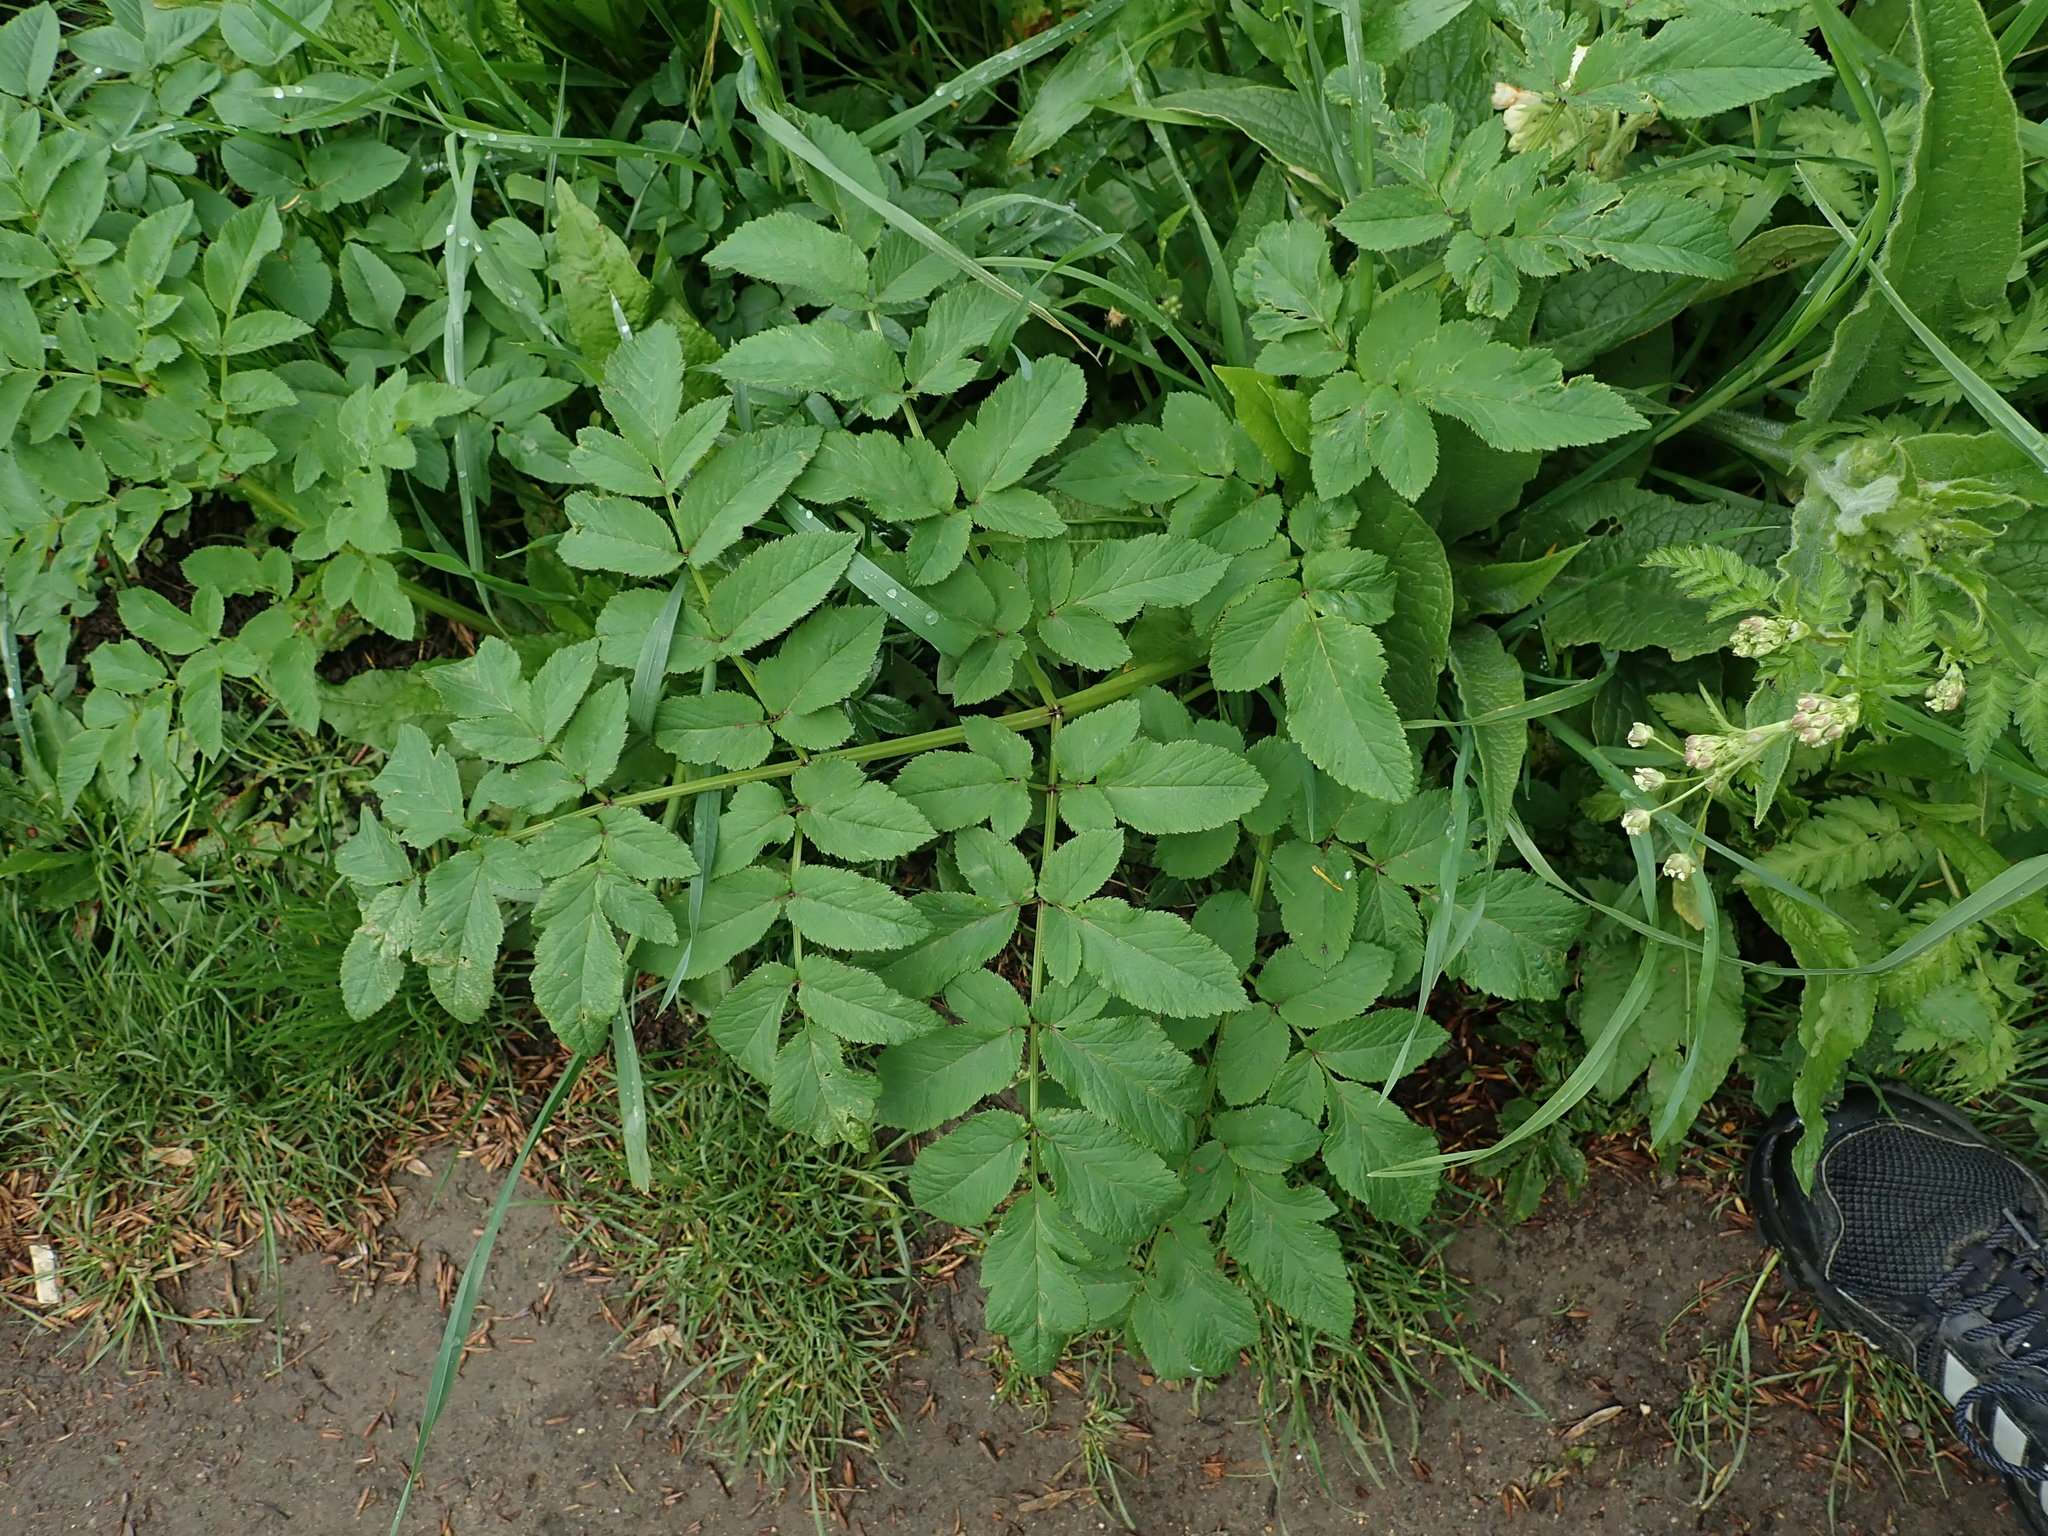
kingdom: Plantae
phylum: Tracheophyta
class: Magnoliopsida
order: Apiales
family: Apiaceae
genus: Angelica
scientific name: Angelica sylvestris
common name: Wild angelica
